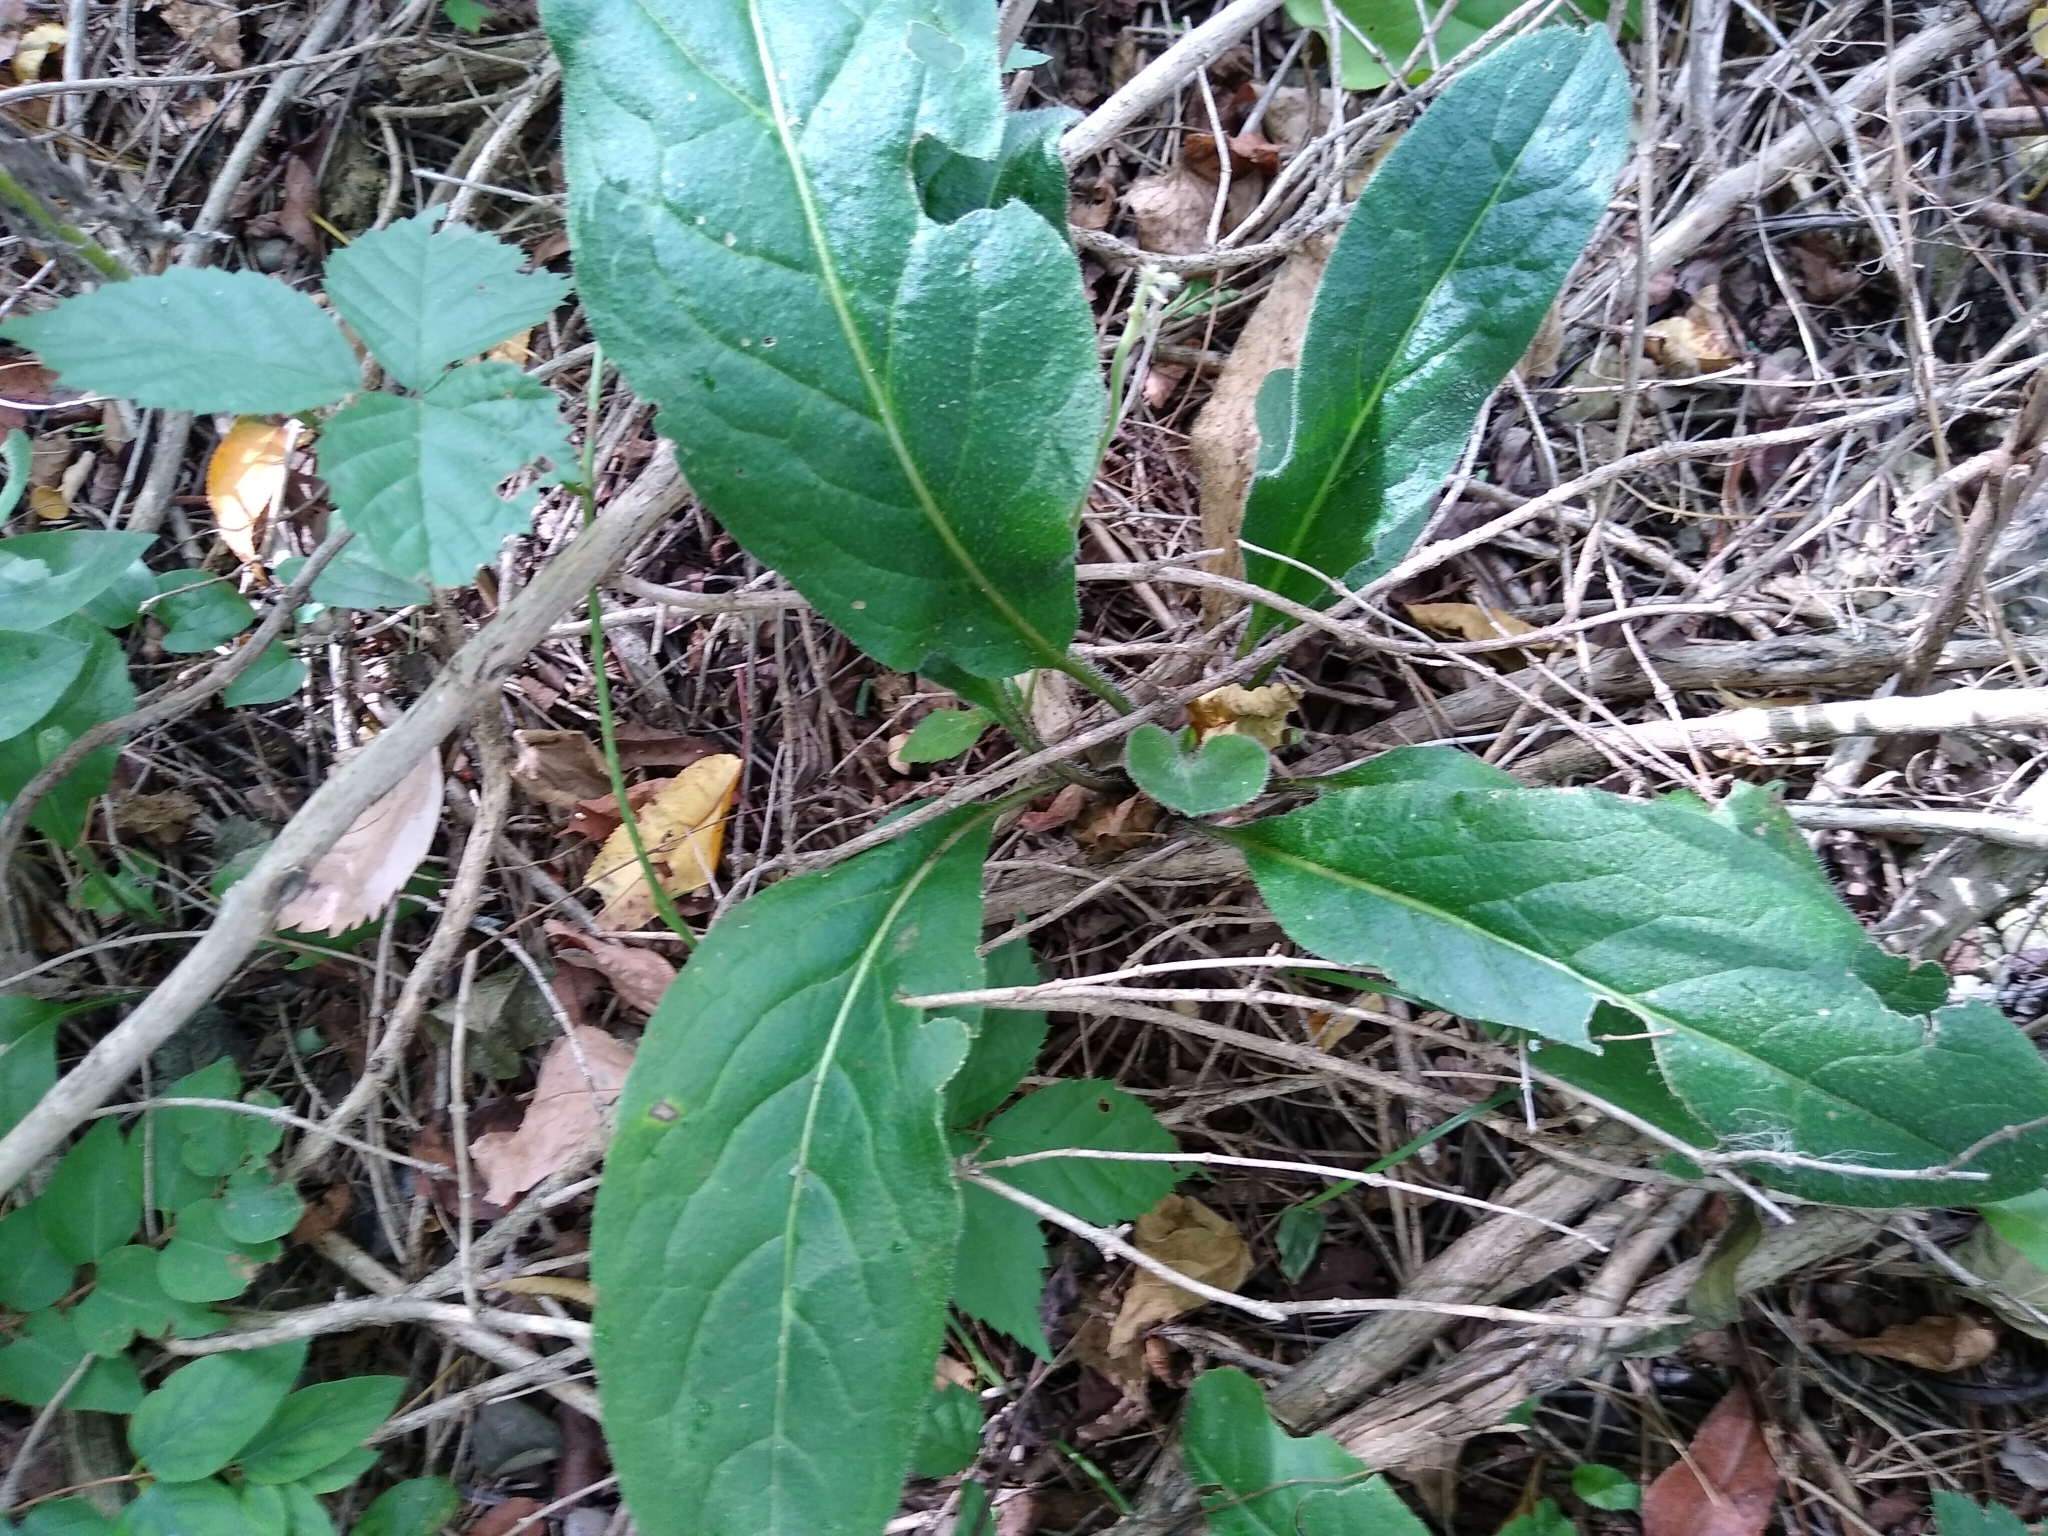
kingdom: Plantae
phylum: Tracheophyta
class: Magnoliopsida
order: Brassicales
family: Brassicaceae
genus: Hesperis
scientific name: Hesperis matronalis
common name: Dame's-violet
